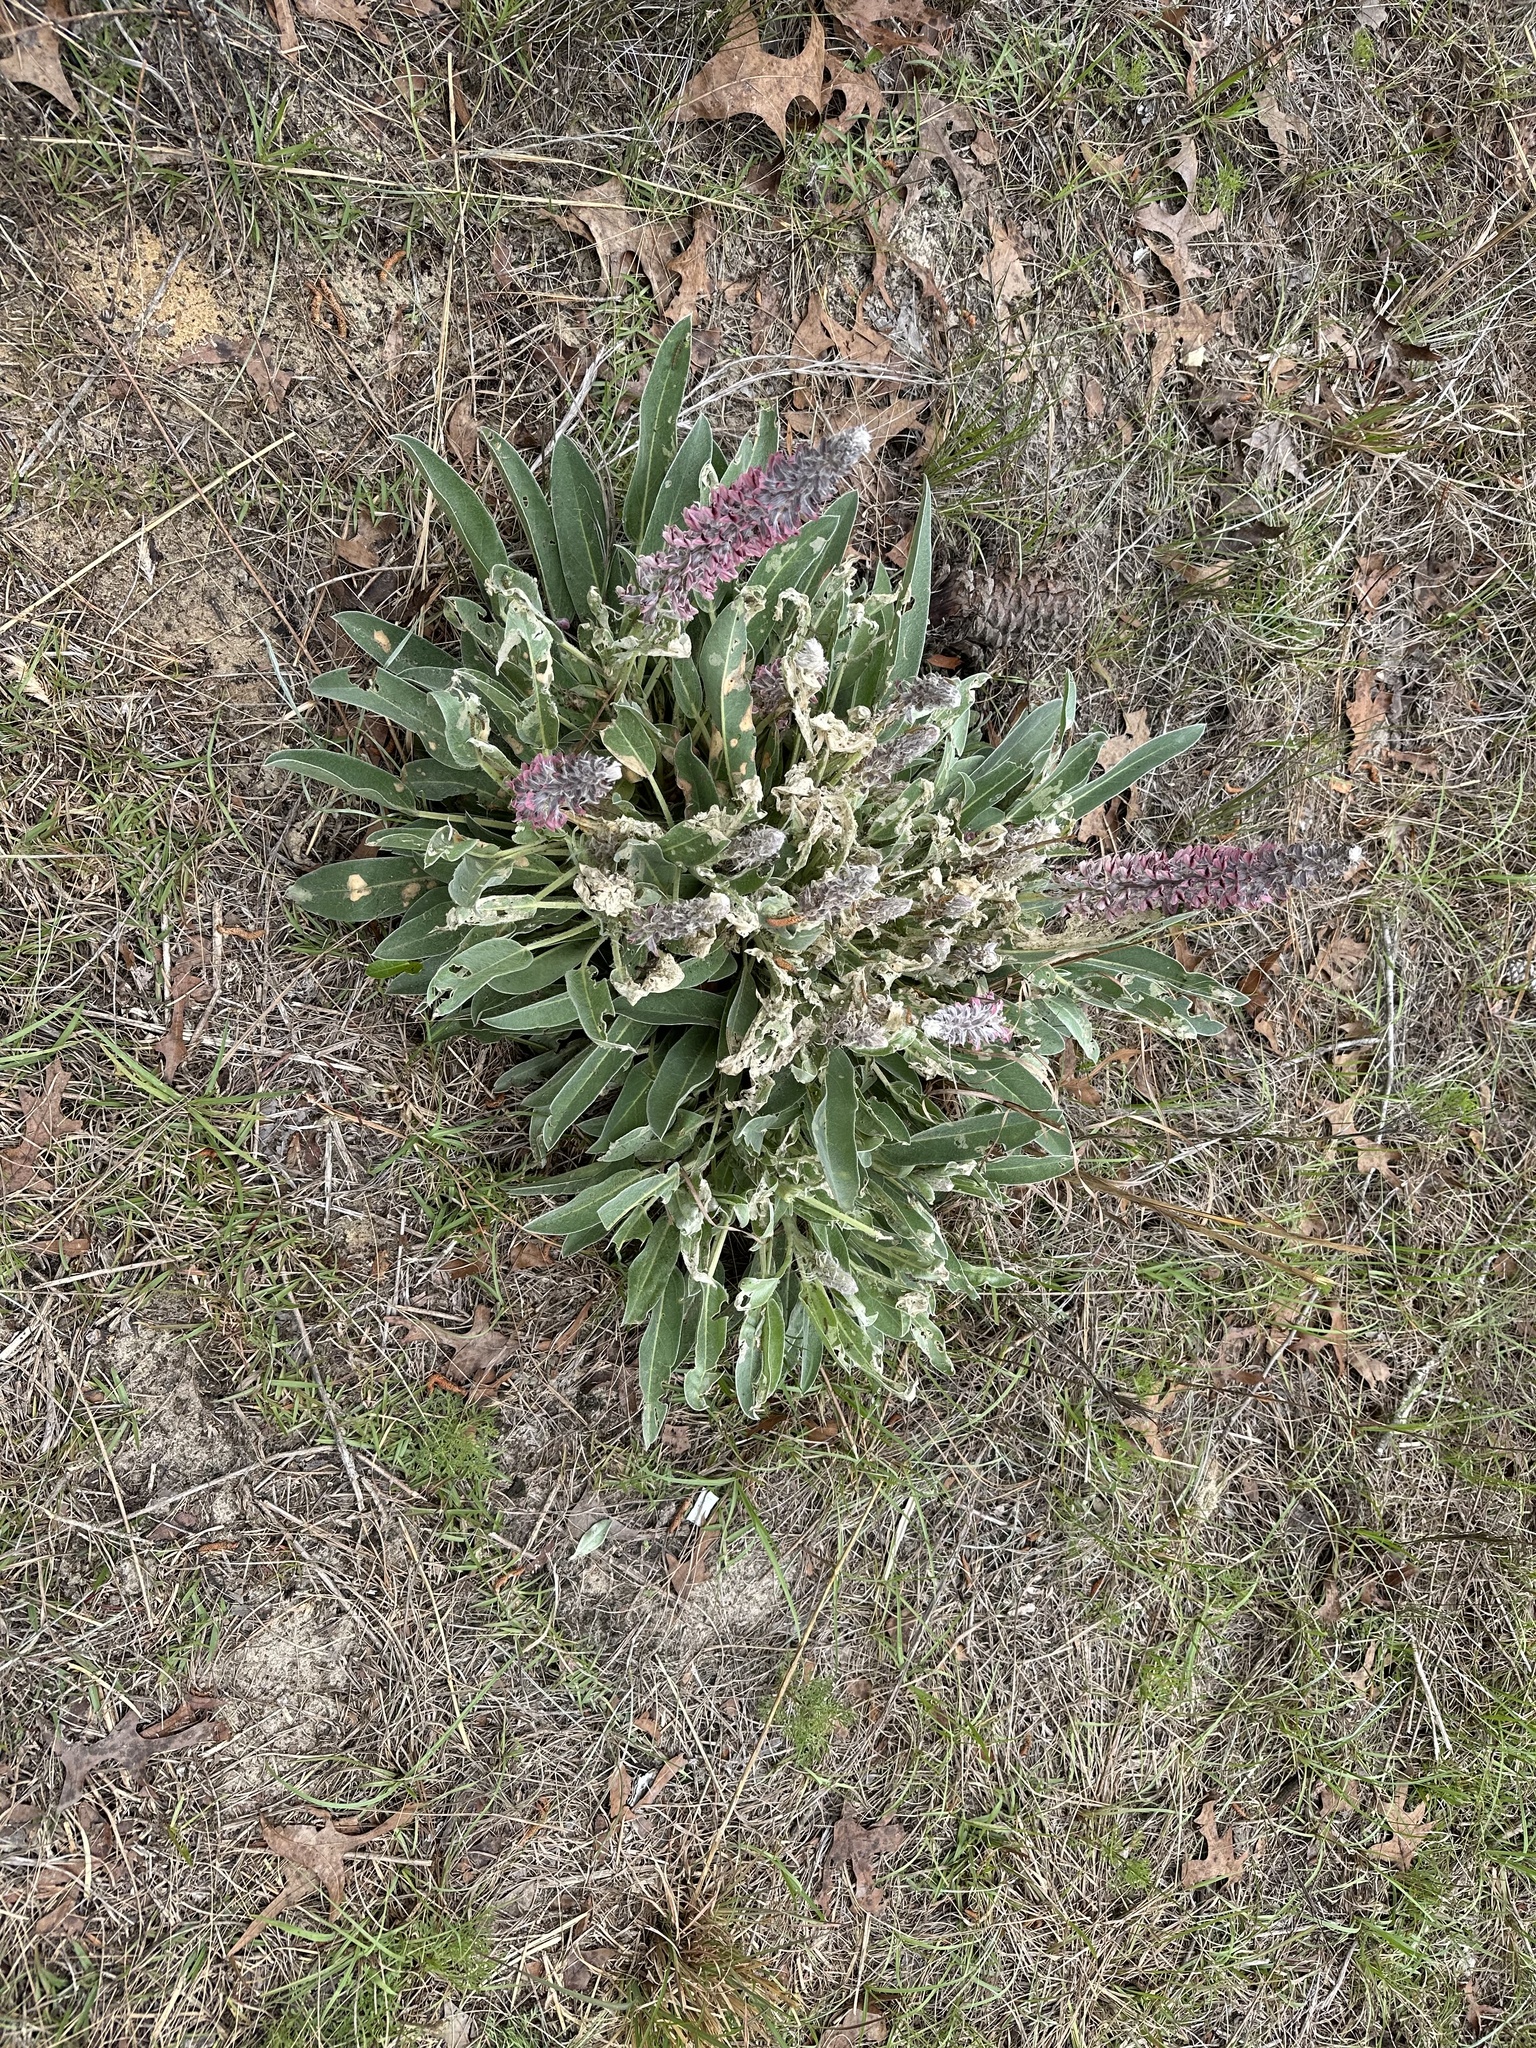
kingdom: Plantae
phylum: Tracheophyta
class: Magnoliopsida
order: Fabales
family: Fabaceae
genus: Lupinus
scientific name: Lupinus villosus
